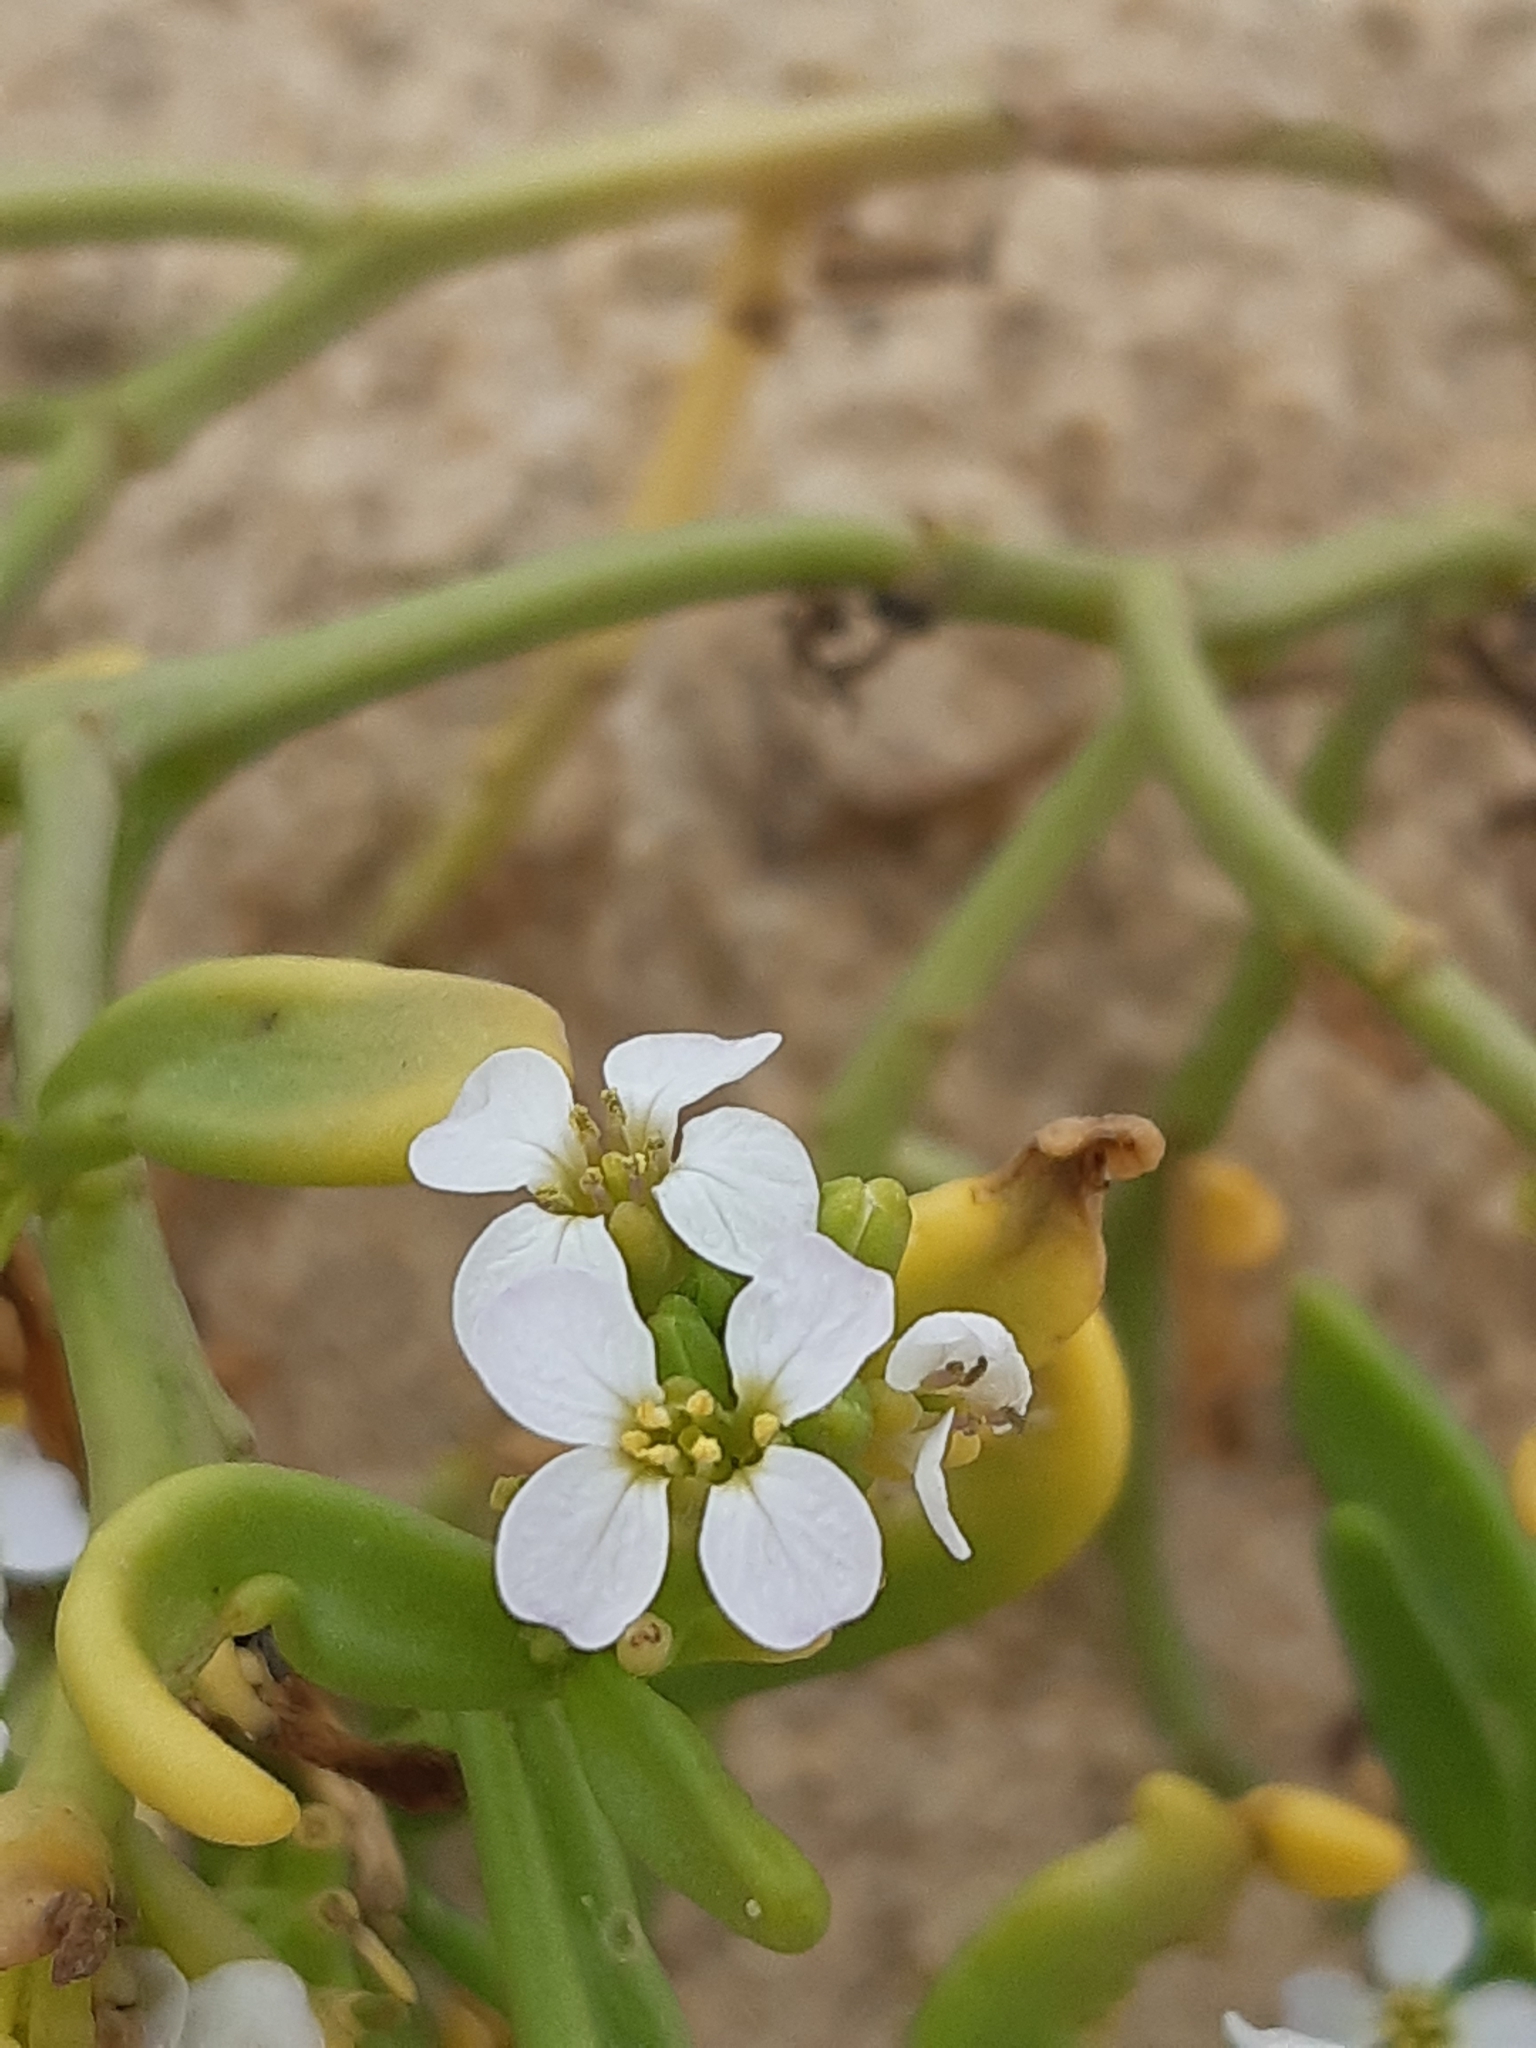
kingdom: Plantae
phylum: Tracheophyta
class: Magnoliopsida
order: Brassicales
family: Brassicaceae
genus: Cakile
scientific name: Cakile maritima
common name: Sea rocket
